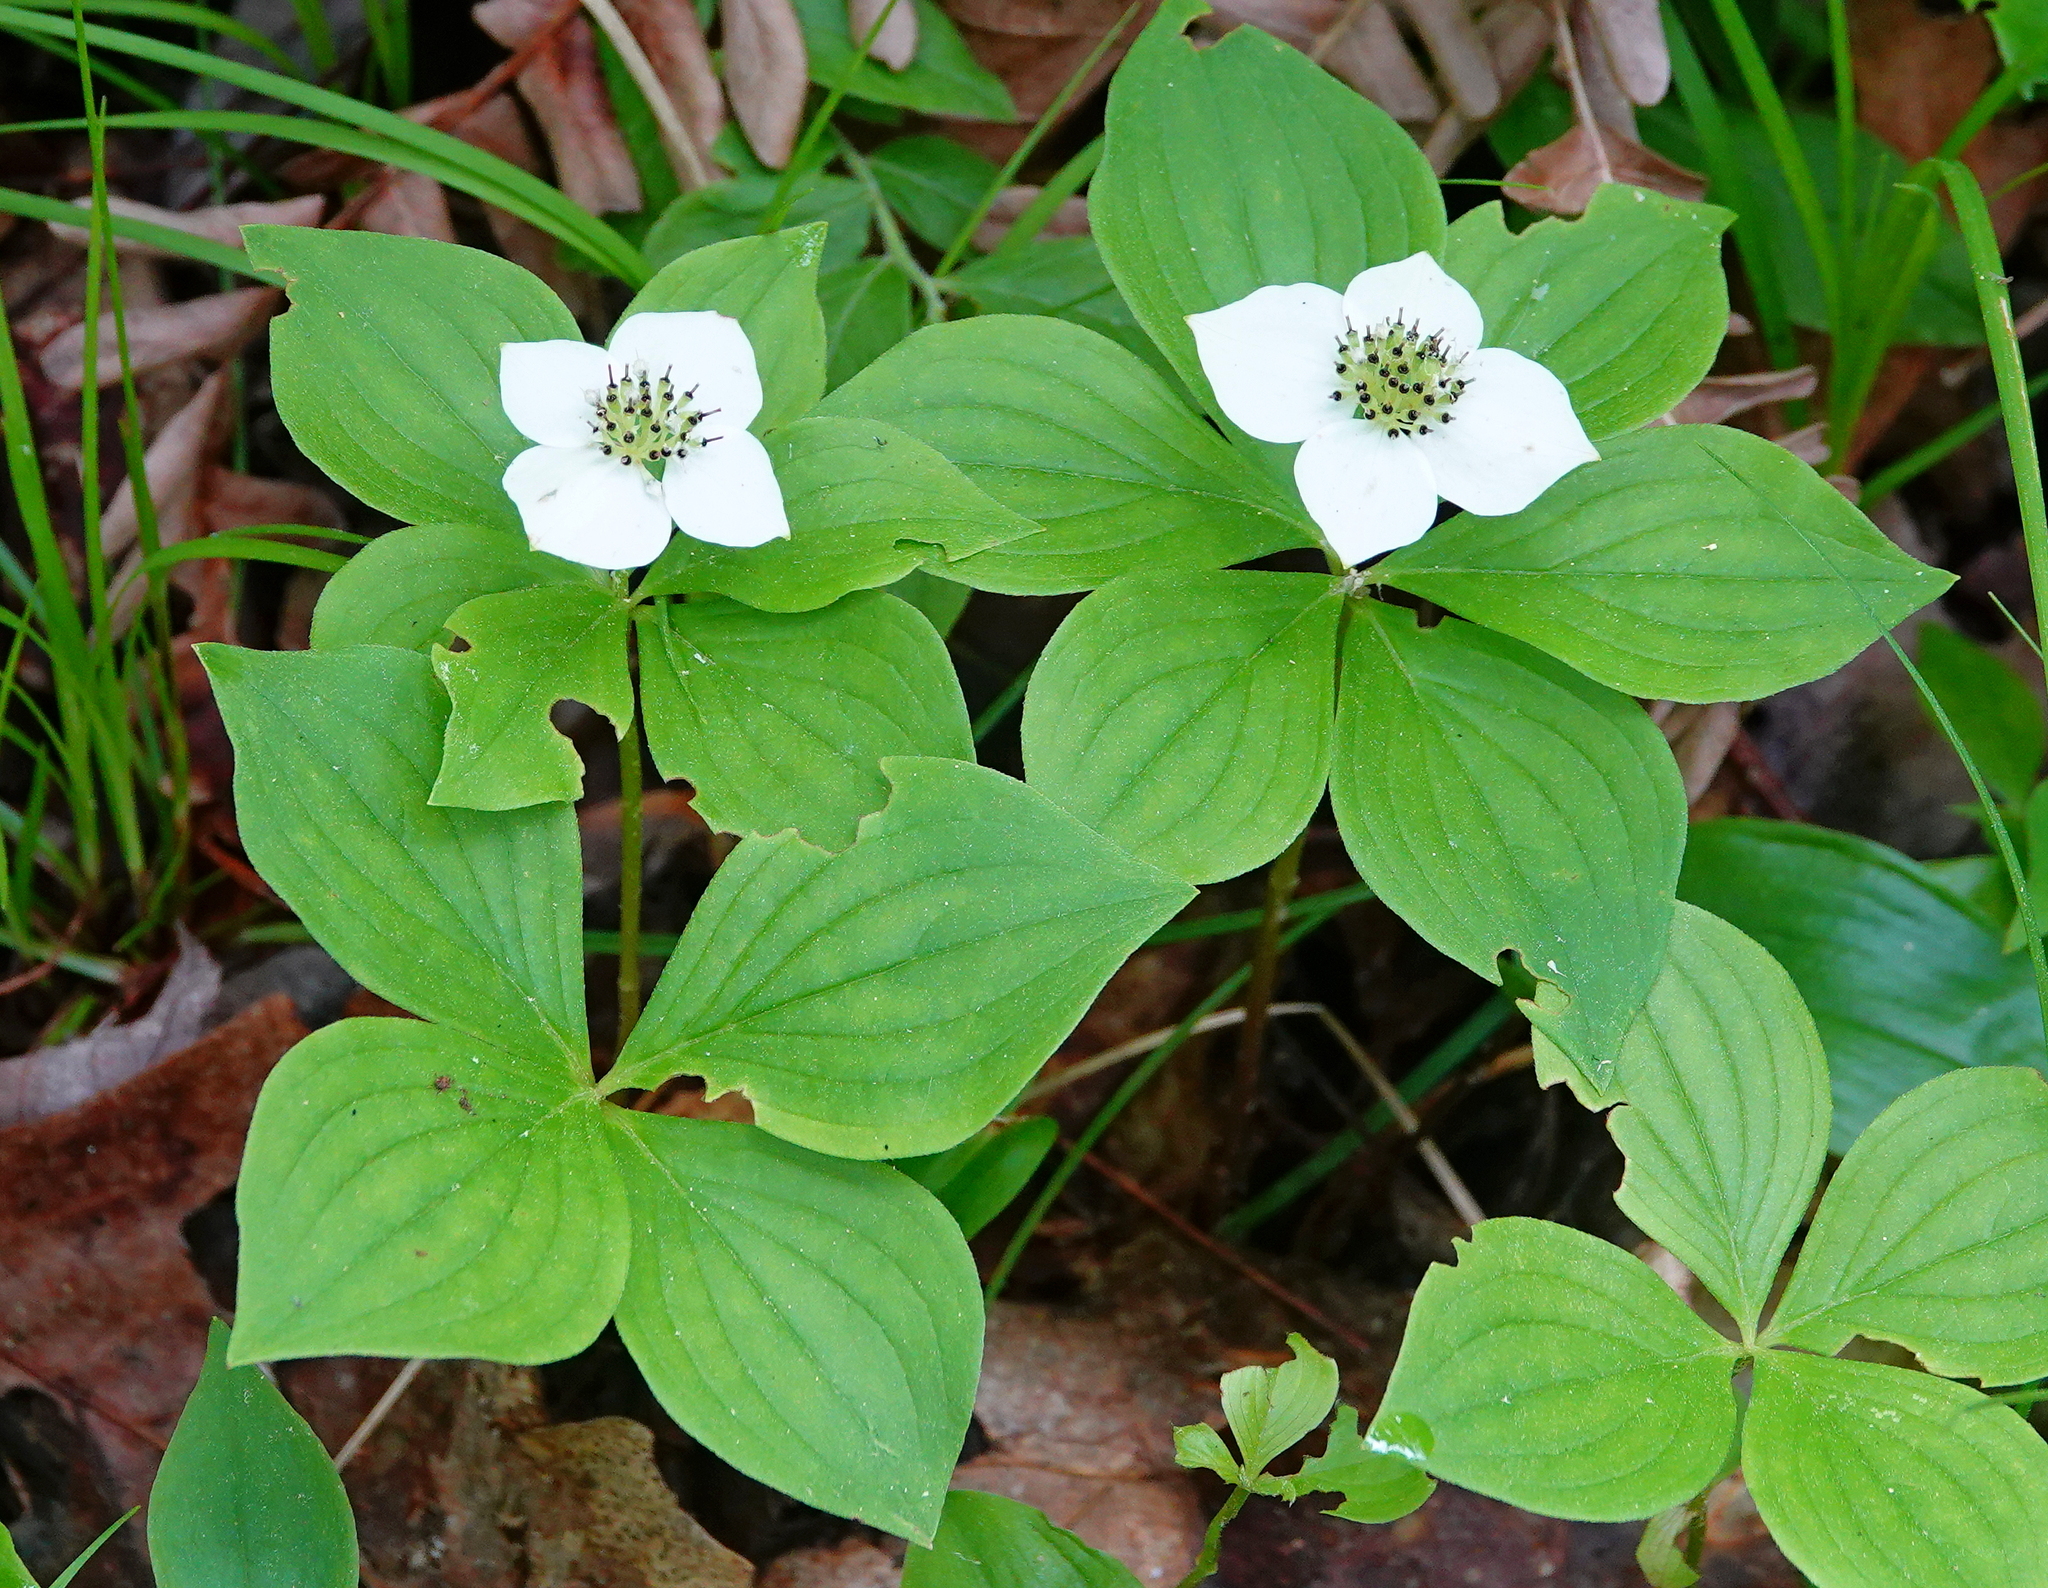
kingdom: Plantae
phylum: Tracheophyta
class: Magnoliopsida
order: Cornales
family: Cornaceae
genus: Cornus
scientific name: Cornus canadensis
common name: Creeping dogwood
